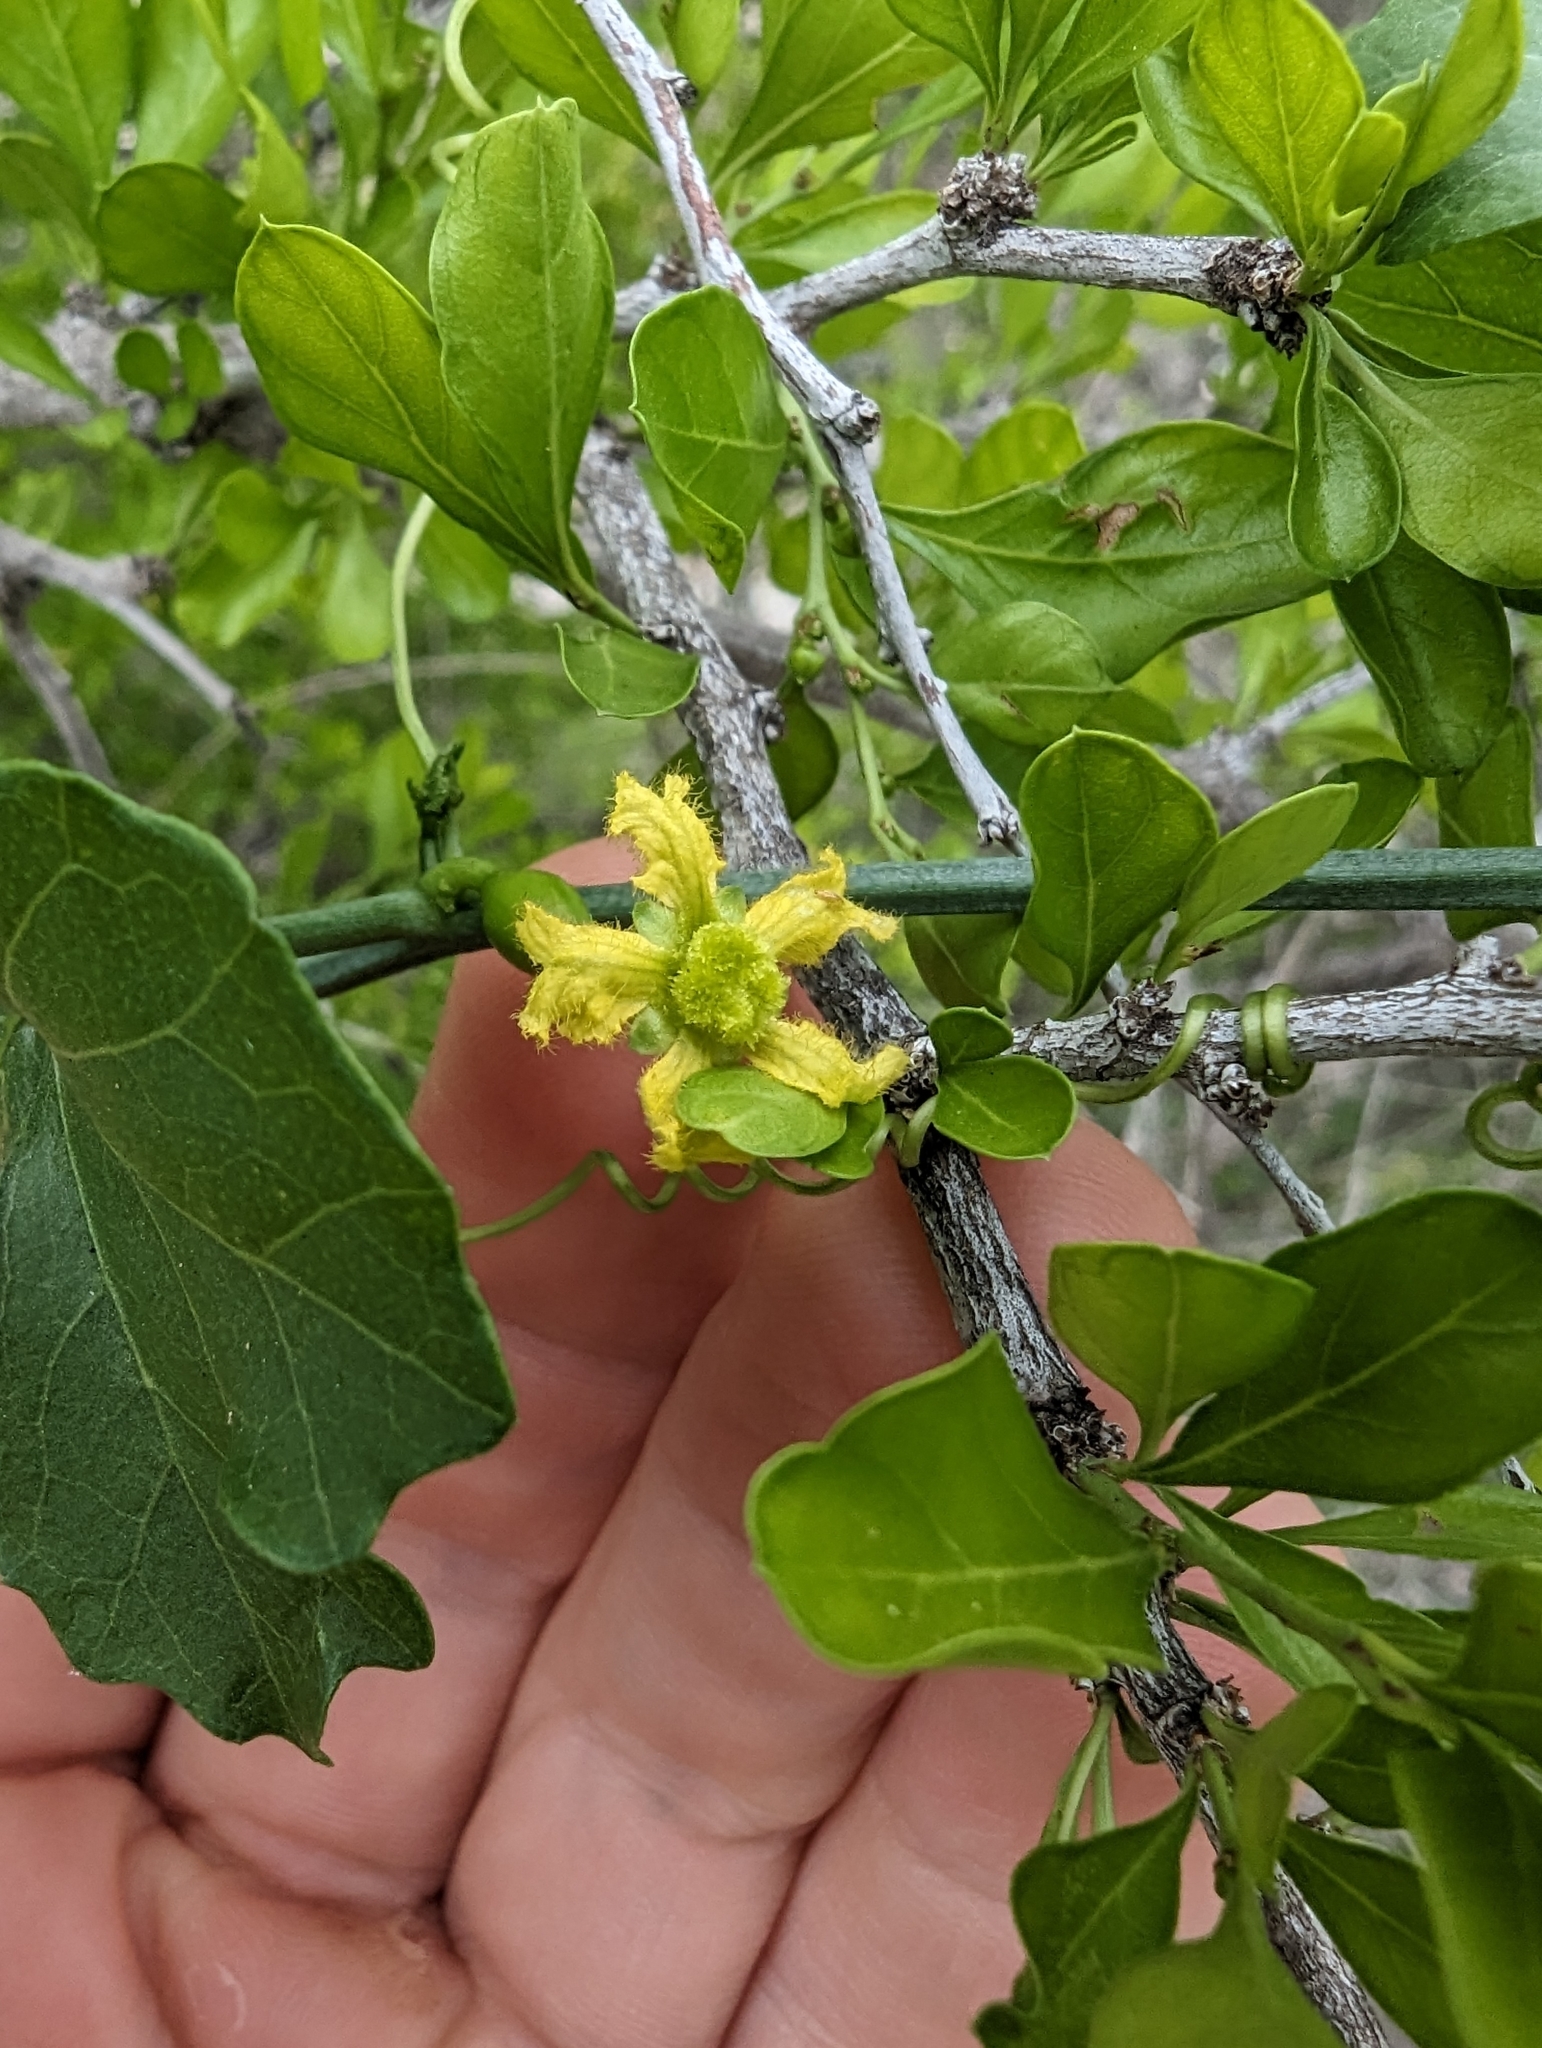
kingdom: Plantae
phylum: Tracheophyta
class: Magnoliopsida
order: Cucurbitales
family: Cucurbitaceae
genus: Ibervillea
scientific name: Ibervillea lindheimeri
